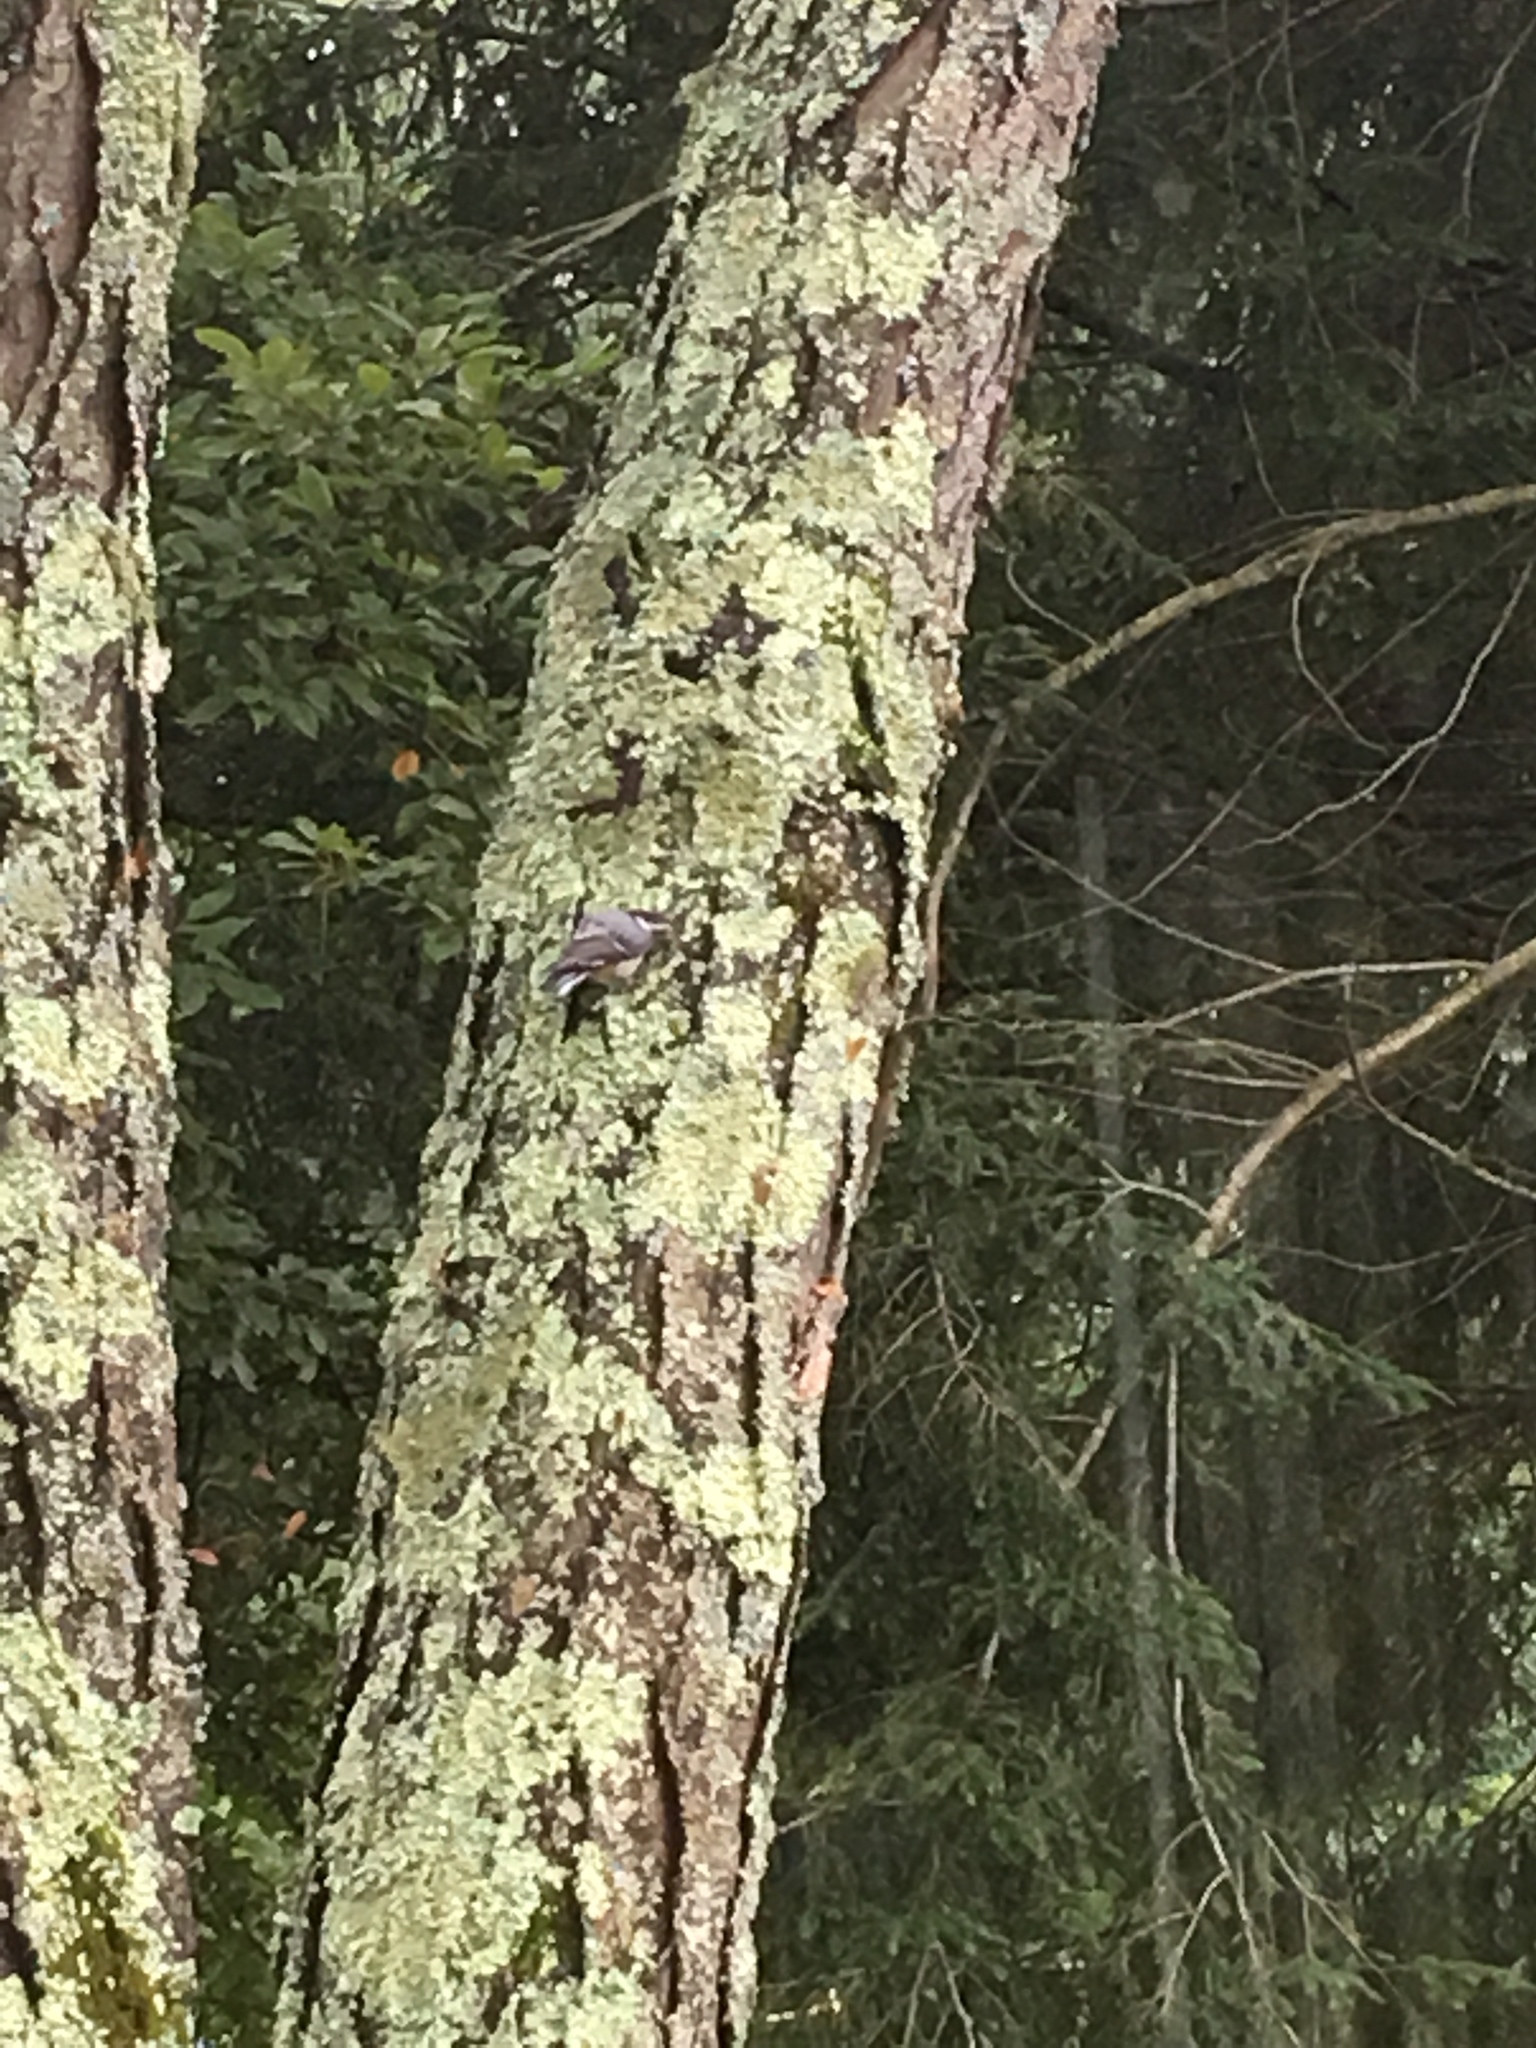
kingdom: Animalia
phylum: Chordata
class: Aves
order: Passeriformes
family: Sittidae
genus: Sitta
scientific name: Sitta carolinensis
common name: White-breasted nuthatch
